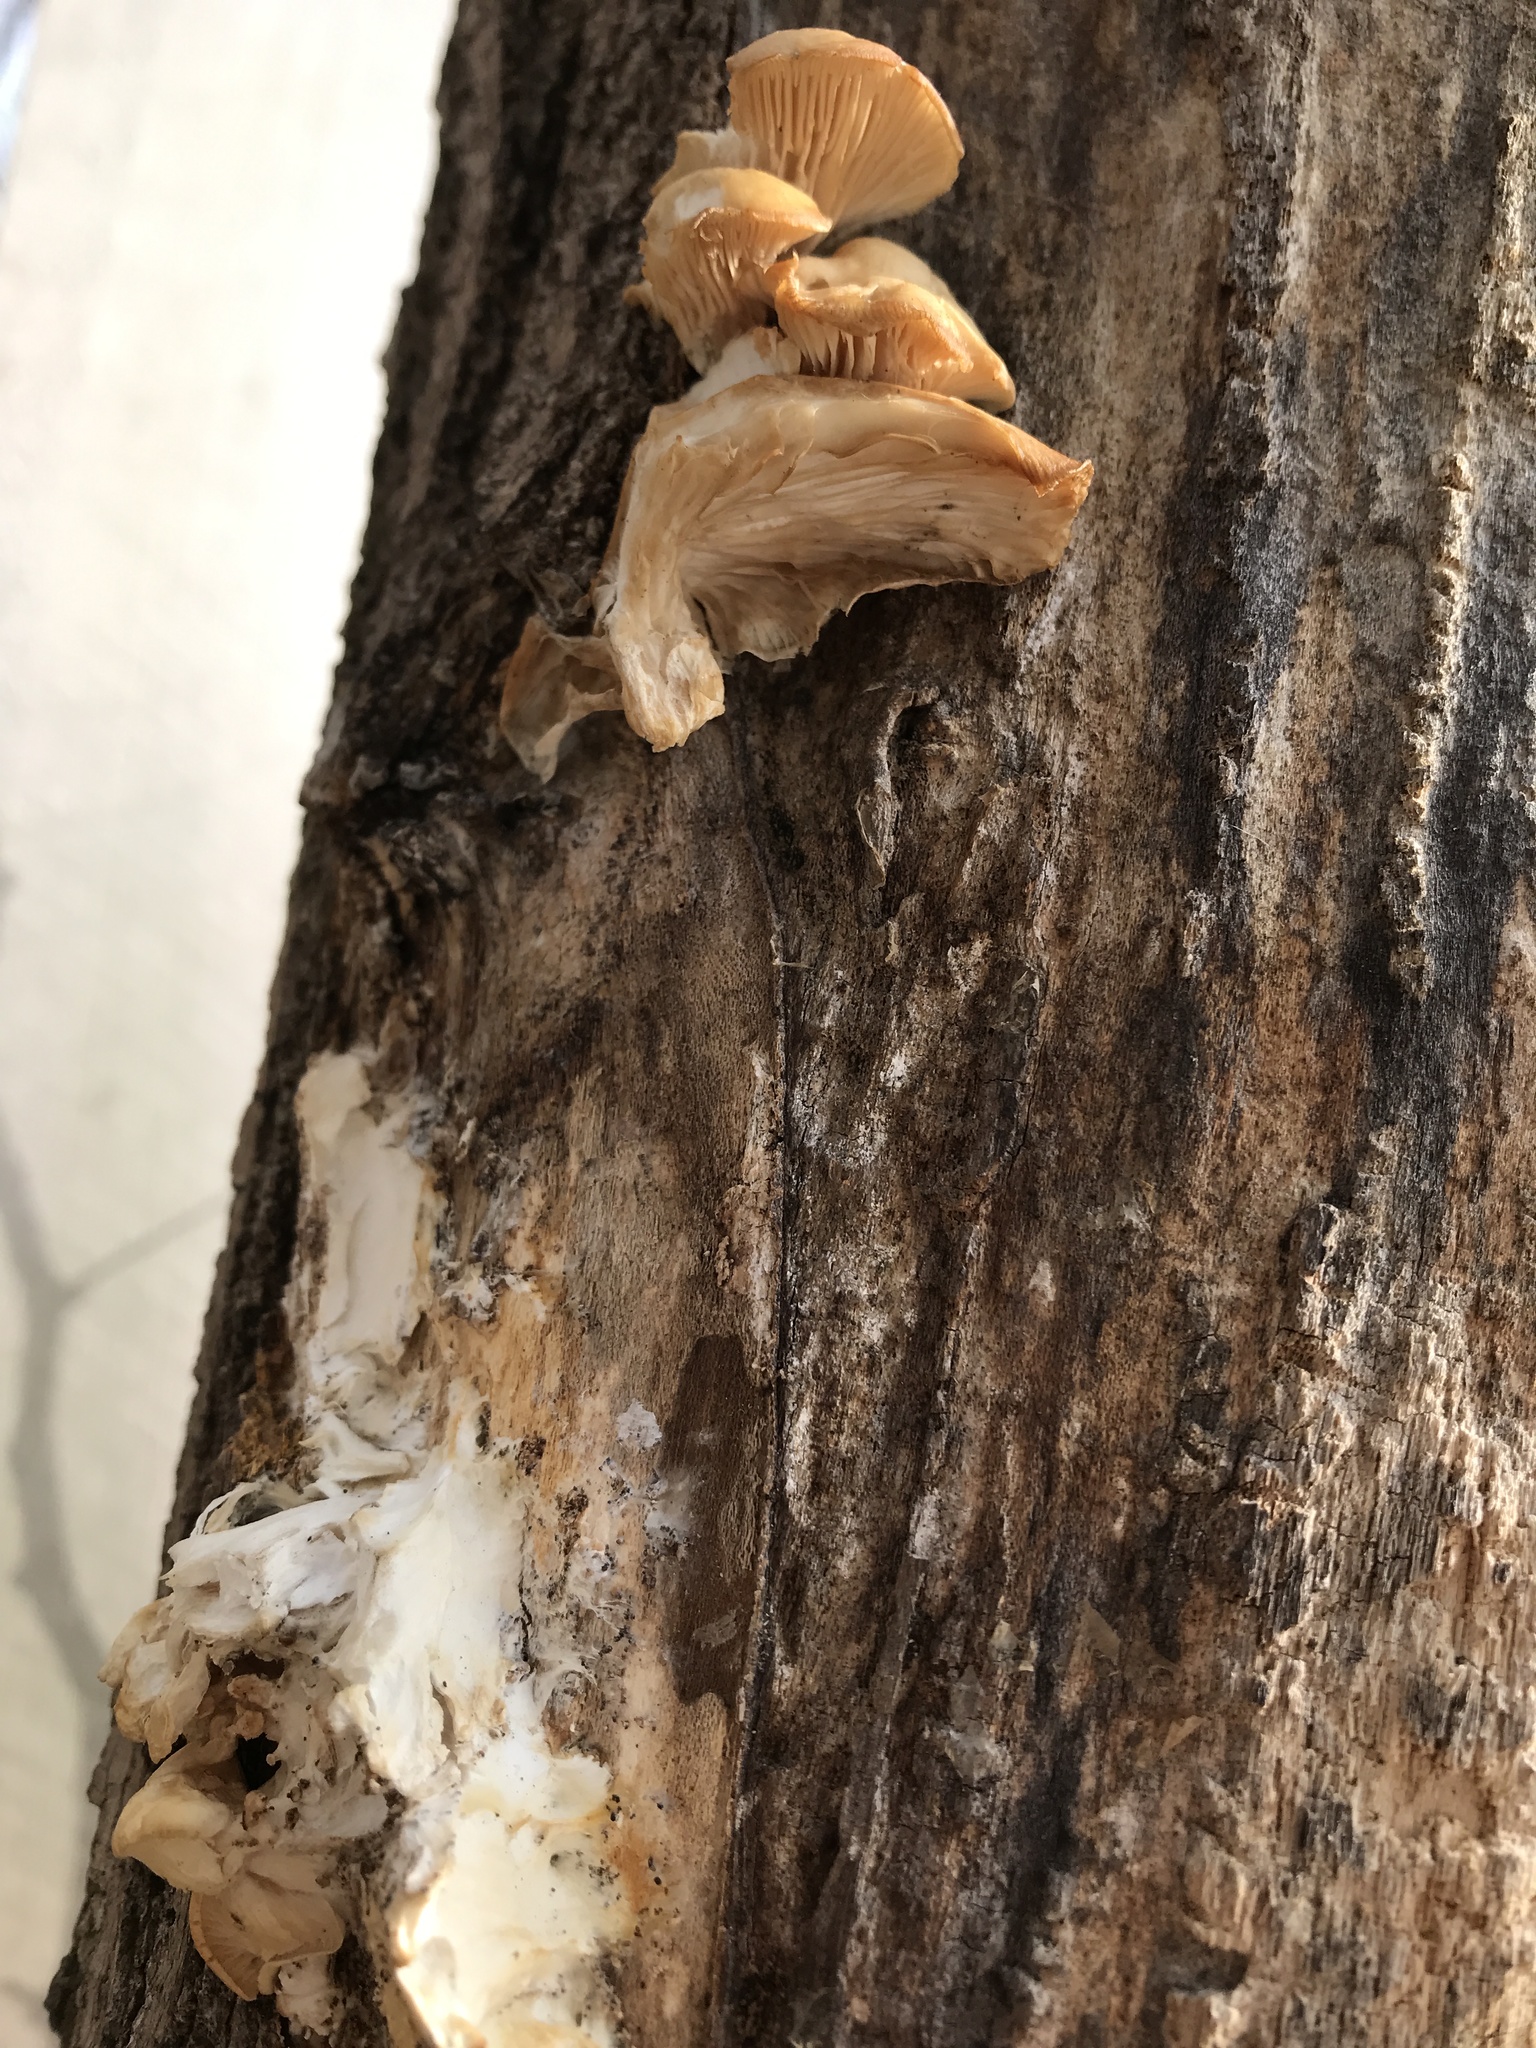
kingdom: Fungi
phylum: Basidiomycota
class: Agaricomycetes
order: Agaricales
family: Pleurotaceae
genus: Pleurotus
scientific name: Pleurotus ostreatus
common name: Oyster mushroom
